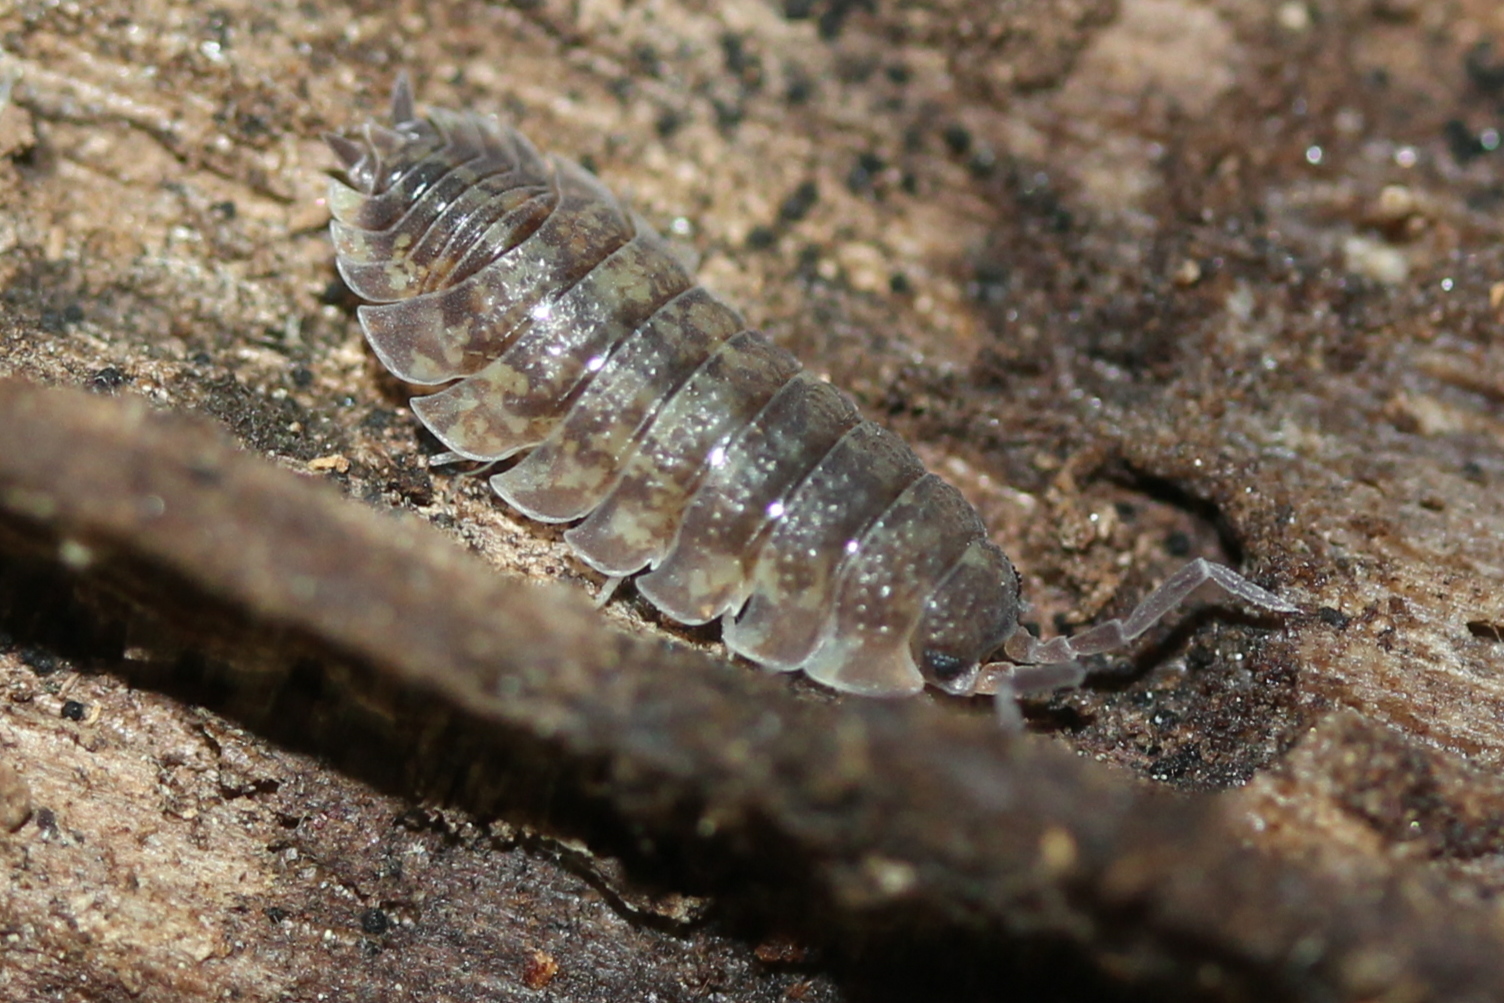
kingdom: Animalia
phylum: Arthropoda
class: Malacostraca
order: Isopoda
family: Porcellionidae
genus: Porcellio
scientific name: Porcellio scaber
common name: Common rough woodlouse
